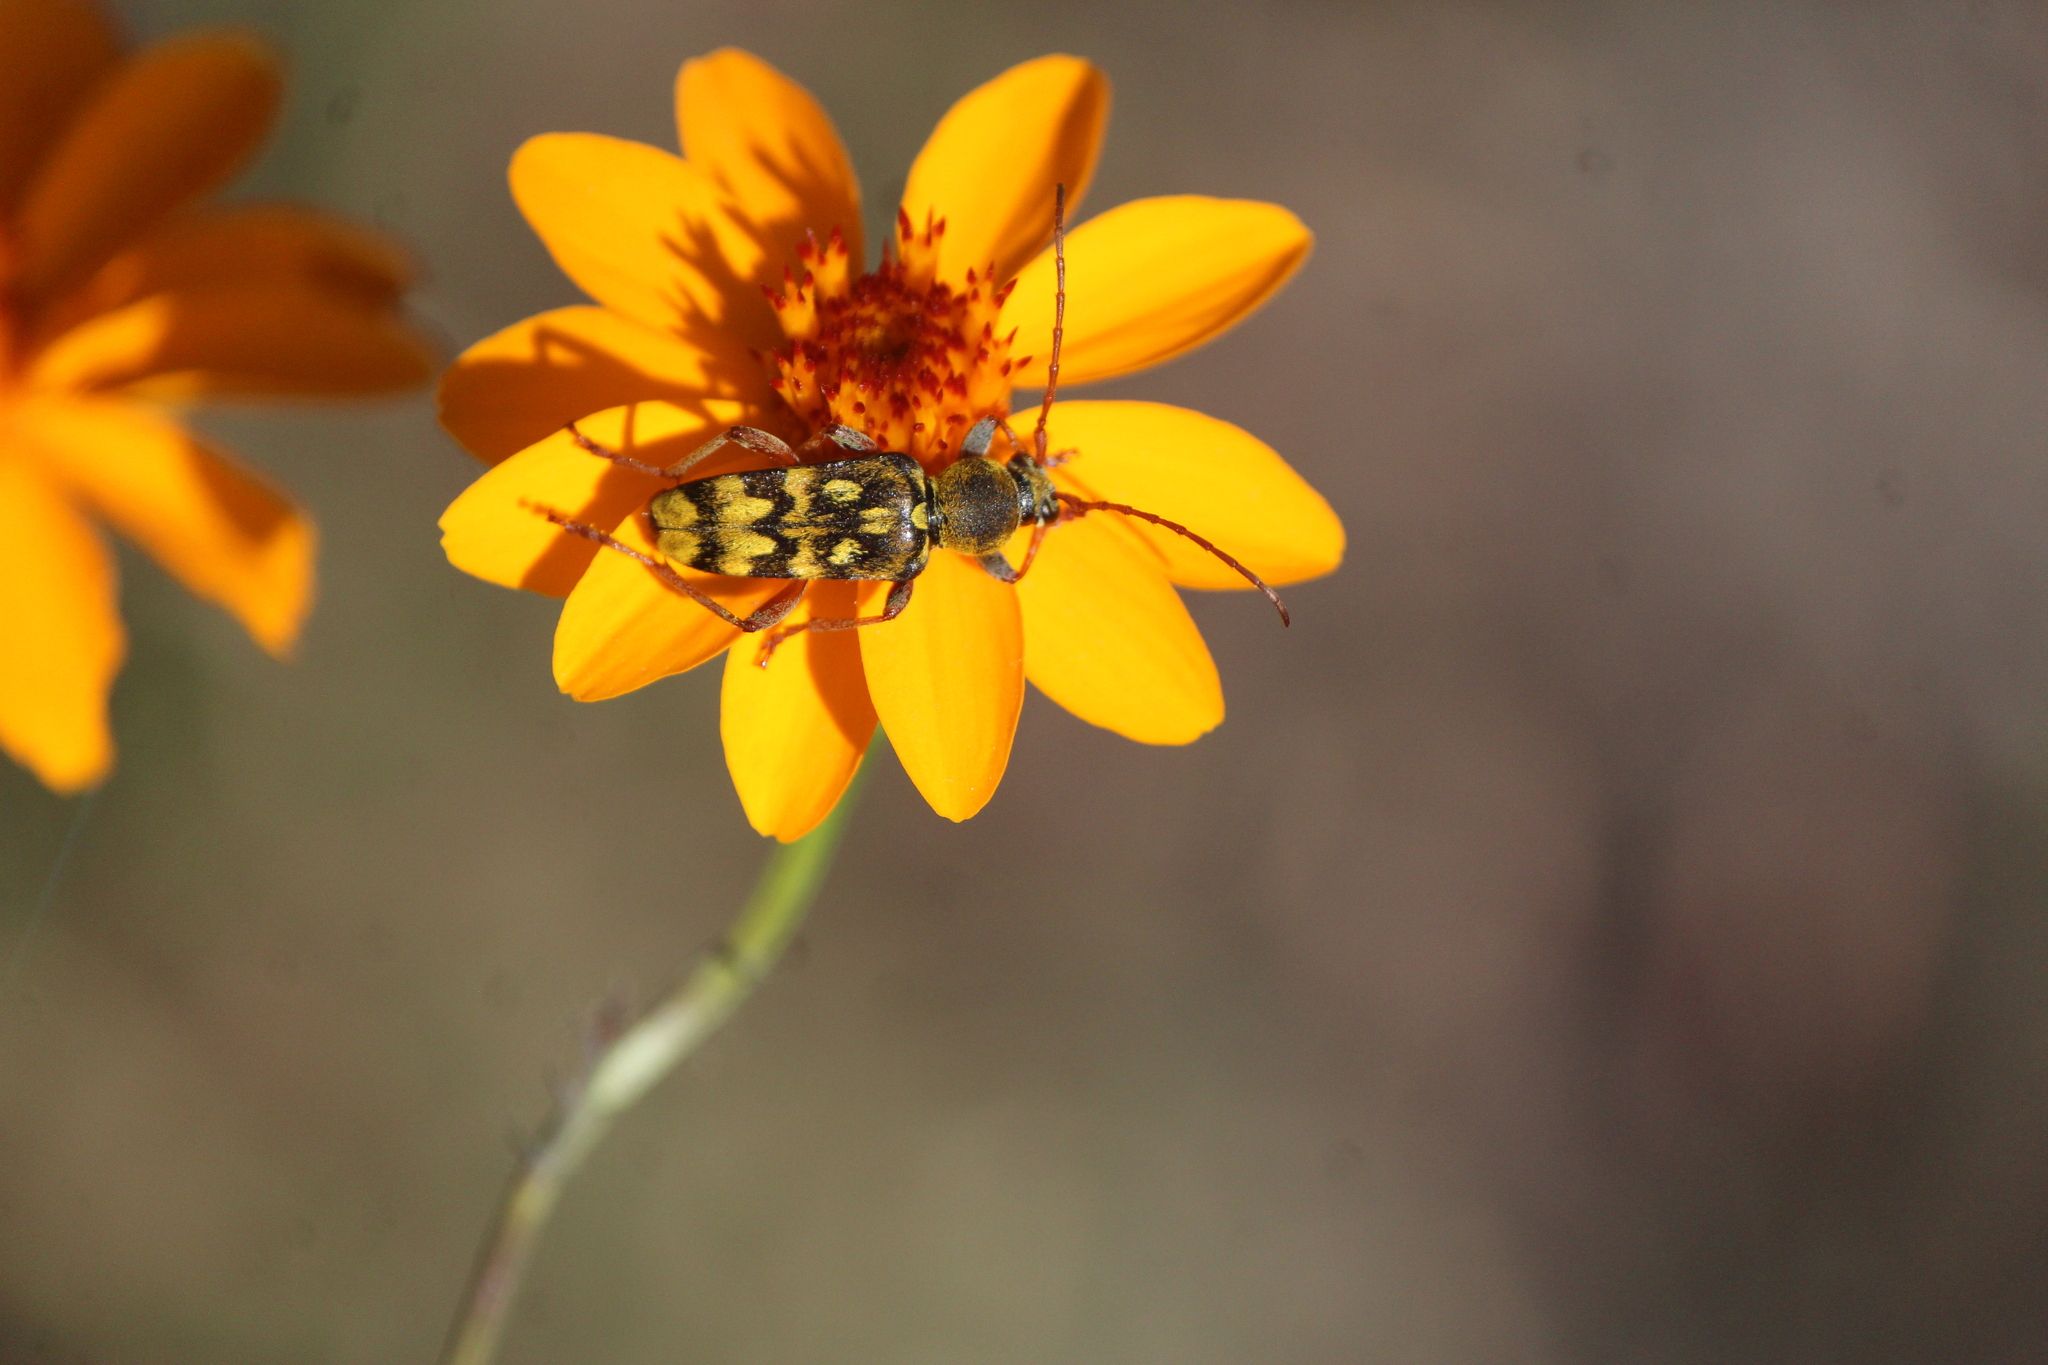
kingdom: Animalia
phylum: Arthropoda
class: Insecta
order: Coleoptera
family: Cerambycidae
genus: Ochraethes
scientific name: Ochraethes sommeri
